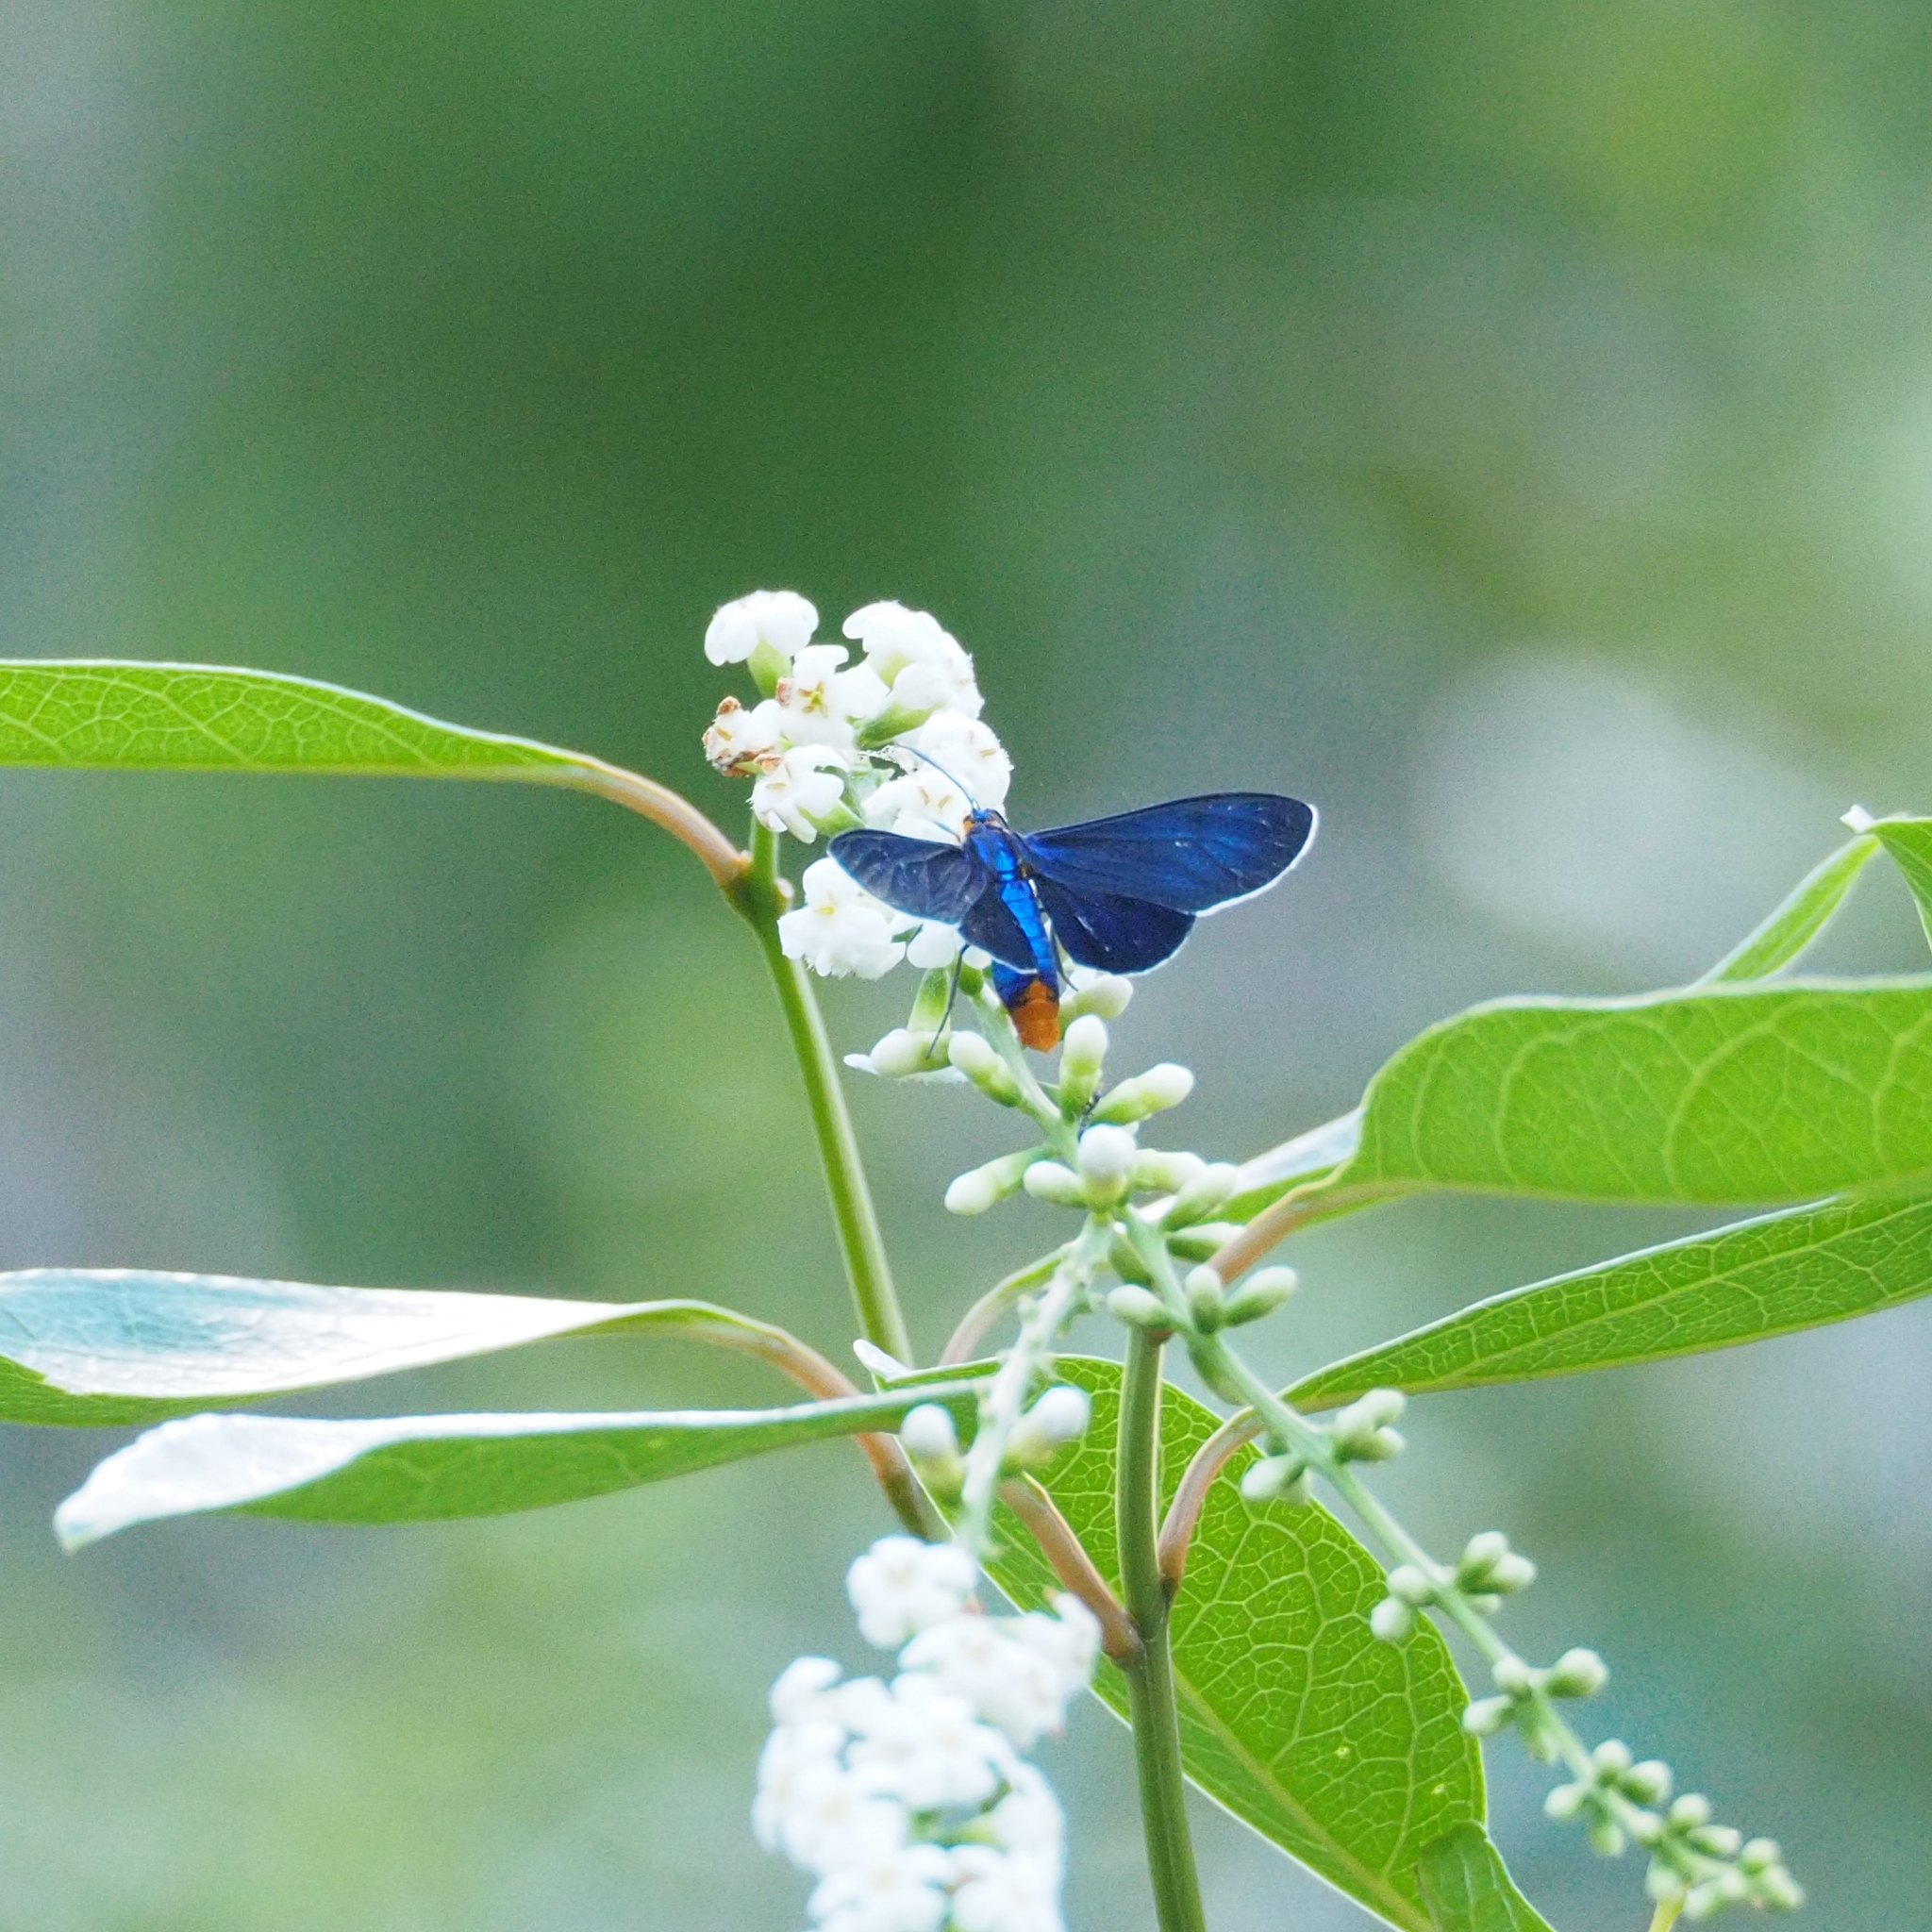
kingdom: Animalia
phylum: Arthropoda
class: Insecta
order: Lepidoptera
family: Erebidae
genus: Uranophora
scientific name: Uranophora chalybea
